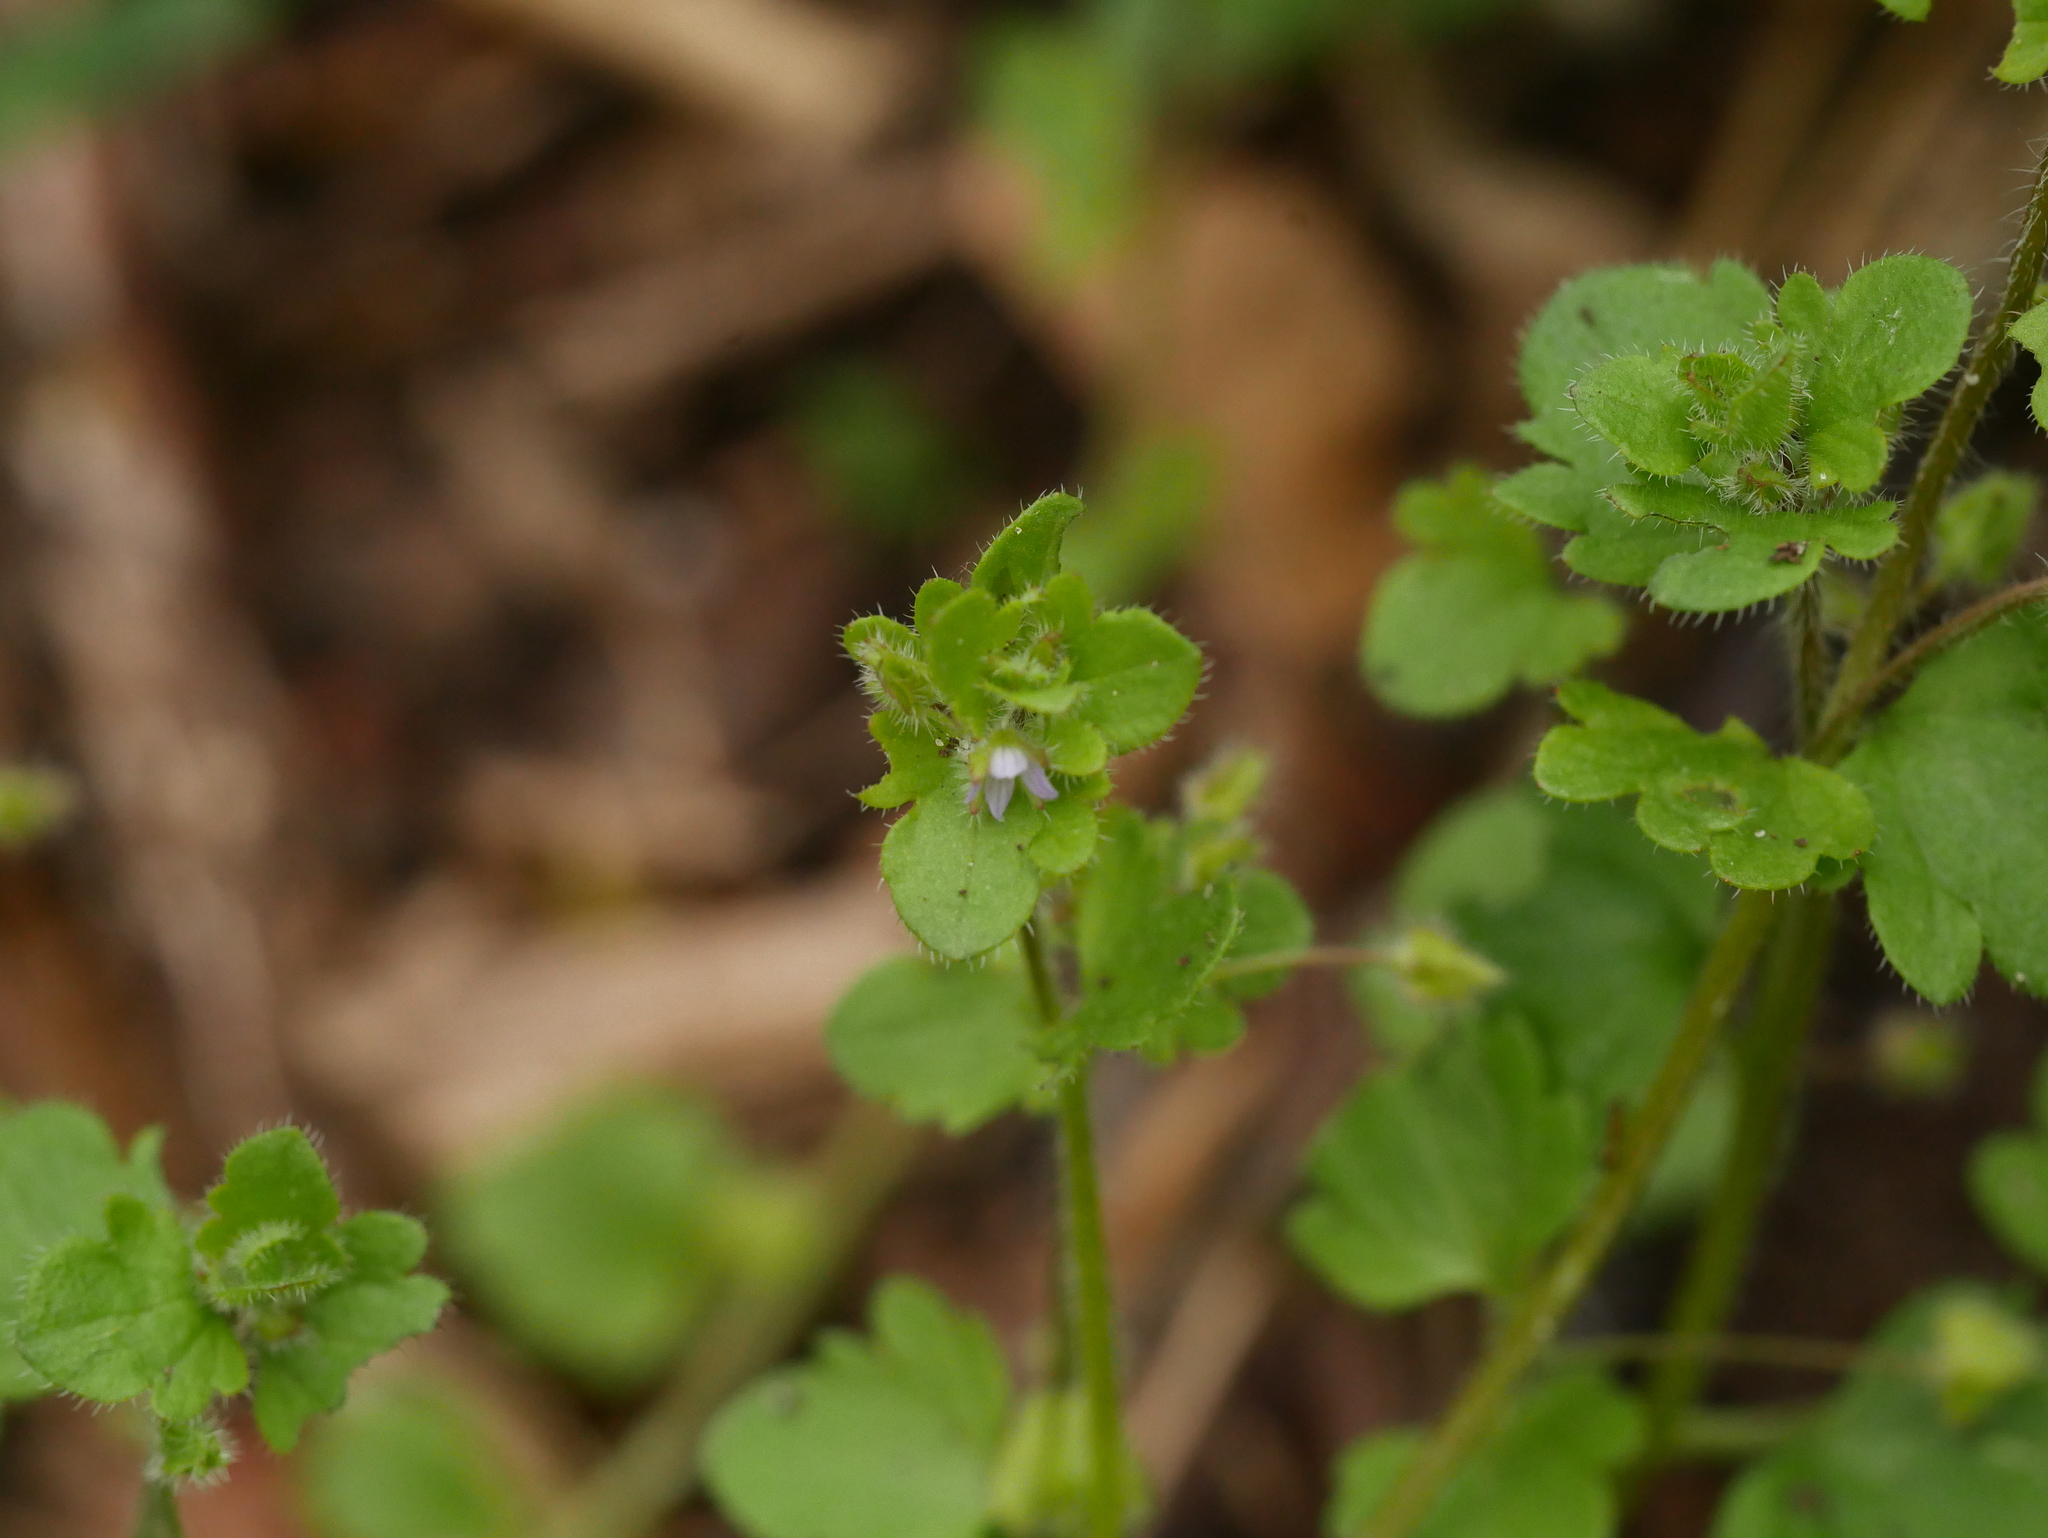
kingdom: Plantae
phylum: Tracheophyta
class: Magnoliopsida
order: Lamiales
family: Plantaginaceae
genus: Veronica
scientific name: Veronica sublobata
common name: False ivy-leaved speedwell
